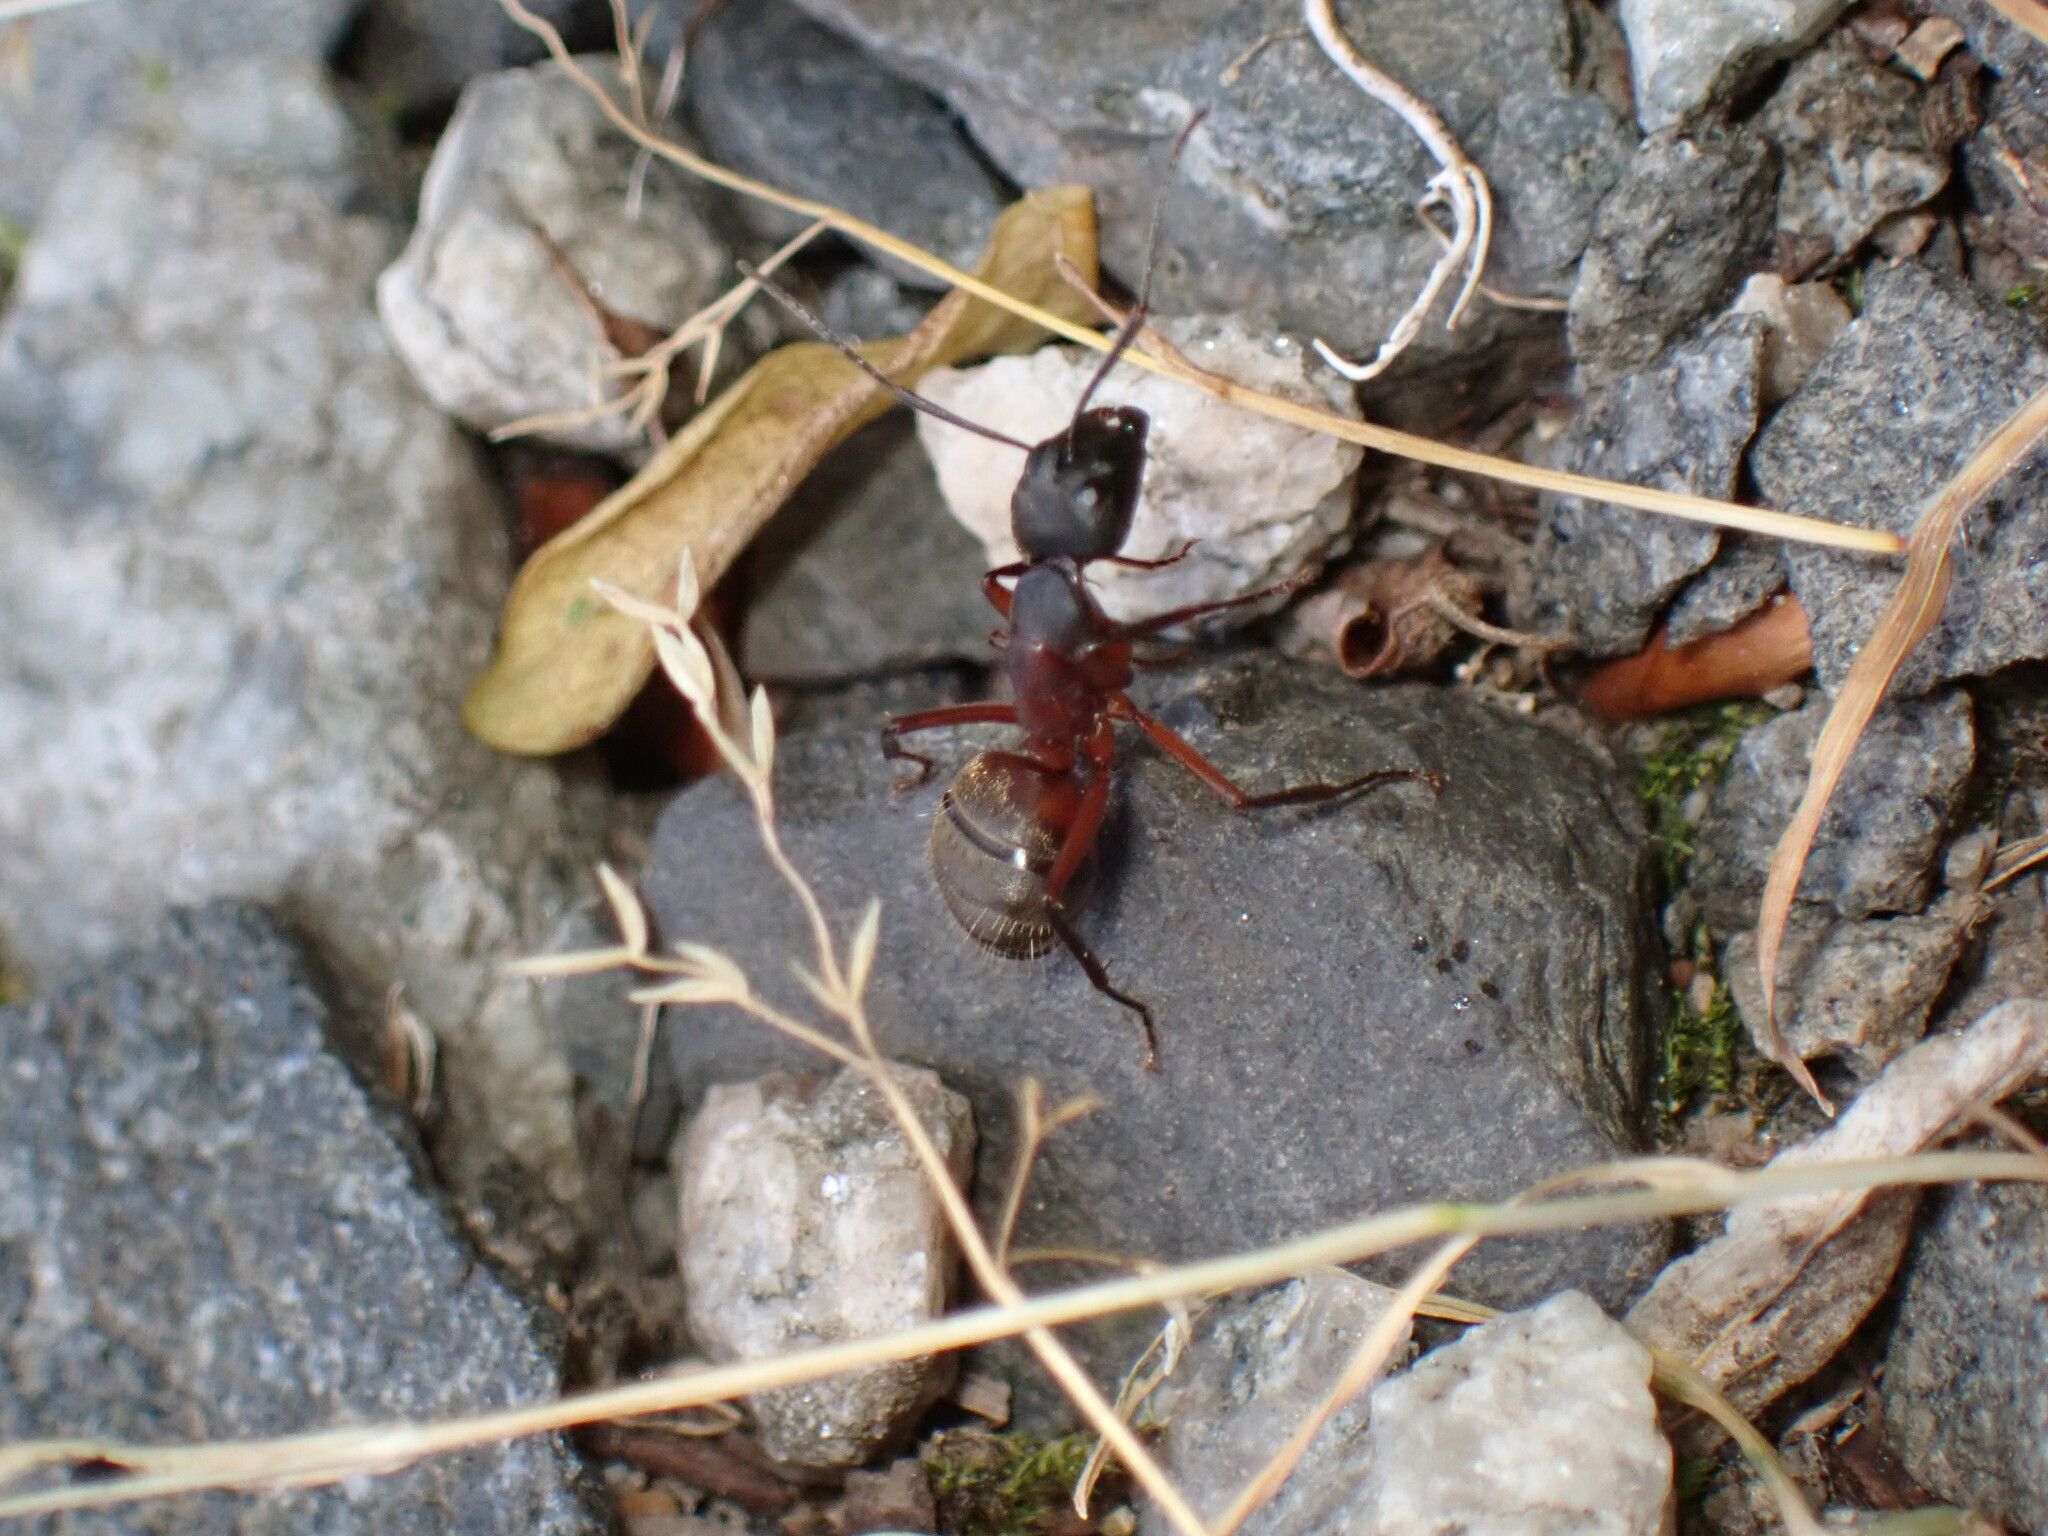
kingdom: Animalia
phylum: Arthropoda
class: Insecta
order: Hymenoptera
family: Formicidae
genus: Camponotus
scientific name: Camponotus chromaiodes
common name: Red carpenter ant
